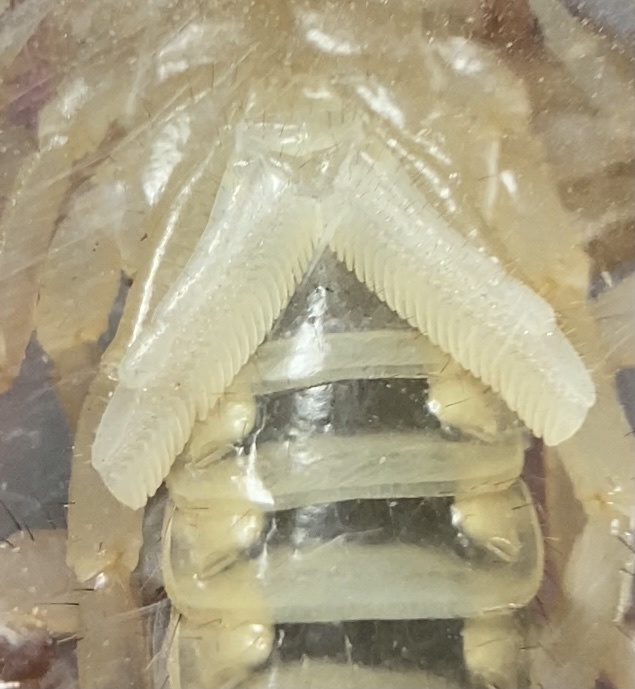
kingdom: Animalia
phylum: Arthropoda
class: Arachnida
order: Scorpiones
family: Vaejovidae
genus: Paravaejovis
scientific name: Paravaejovis spinigerus
